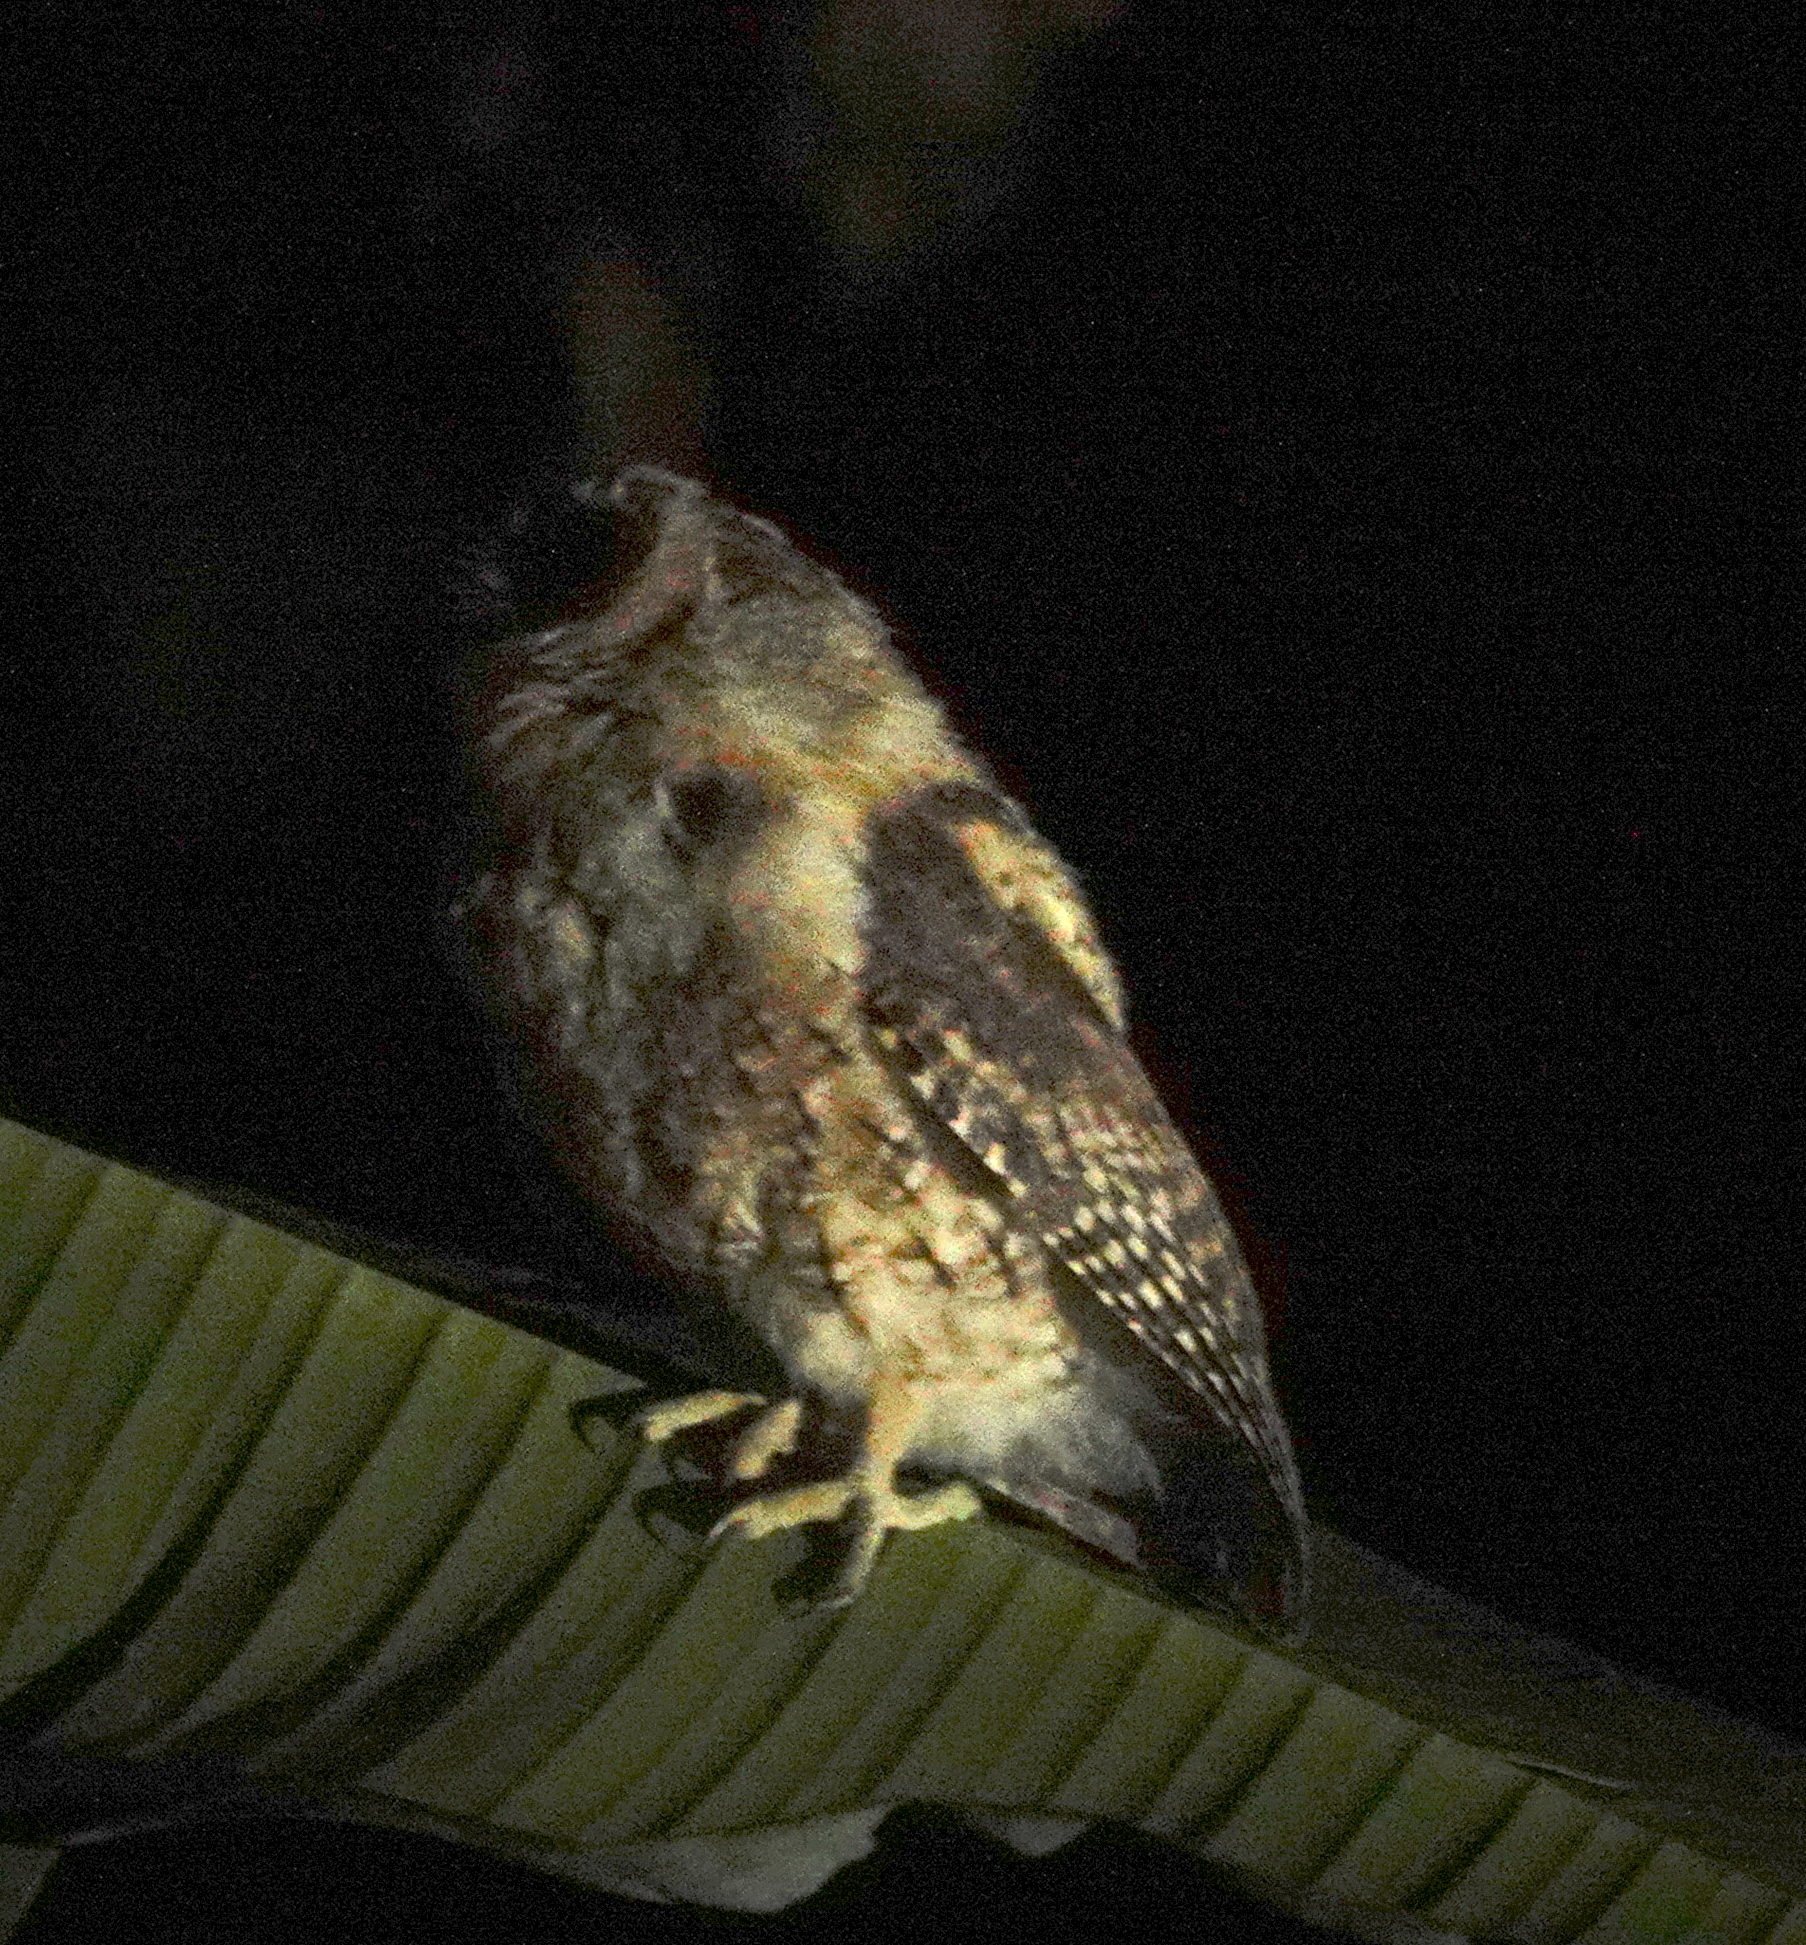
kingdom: Animalia
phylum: Chordata
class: Aves
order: Strigiformes
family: Strigidae
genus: Otus
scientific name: Otus magicus
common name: Moluccan scops owl
